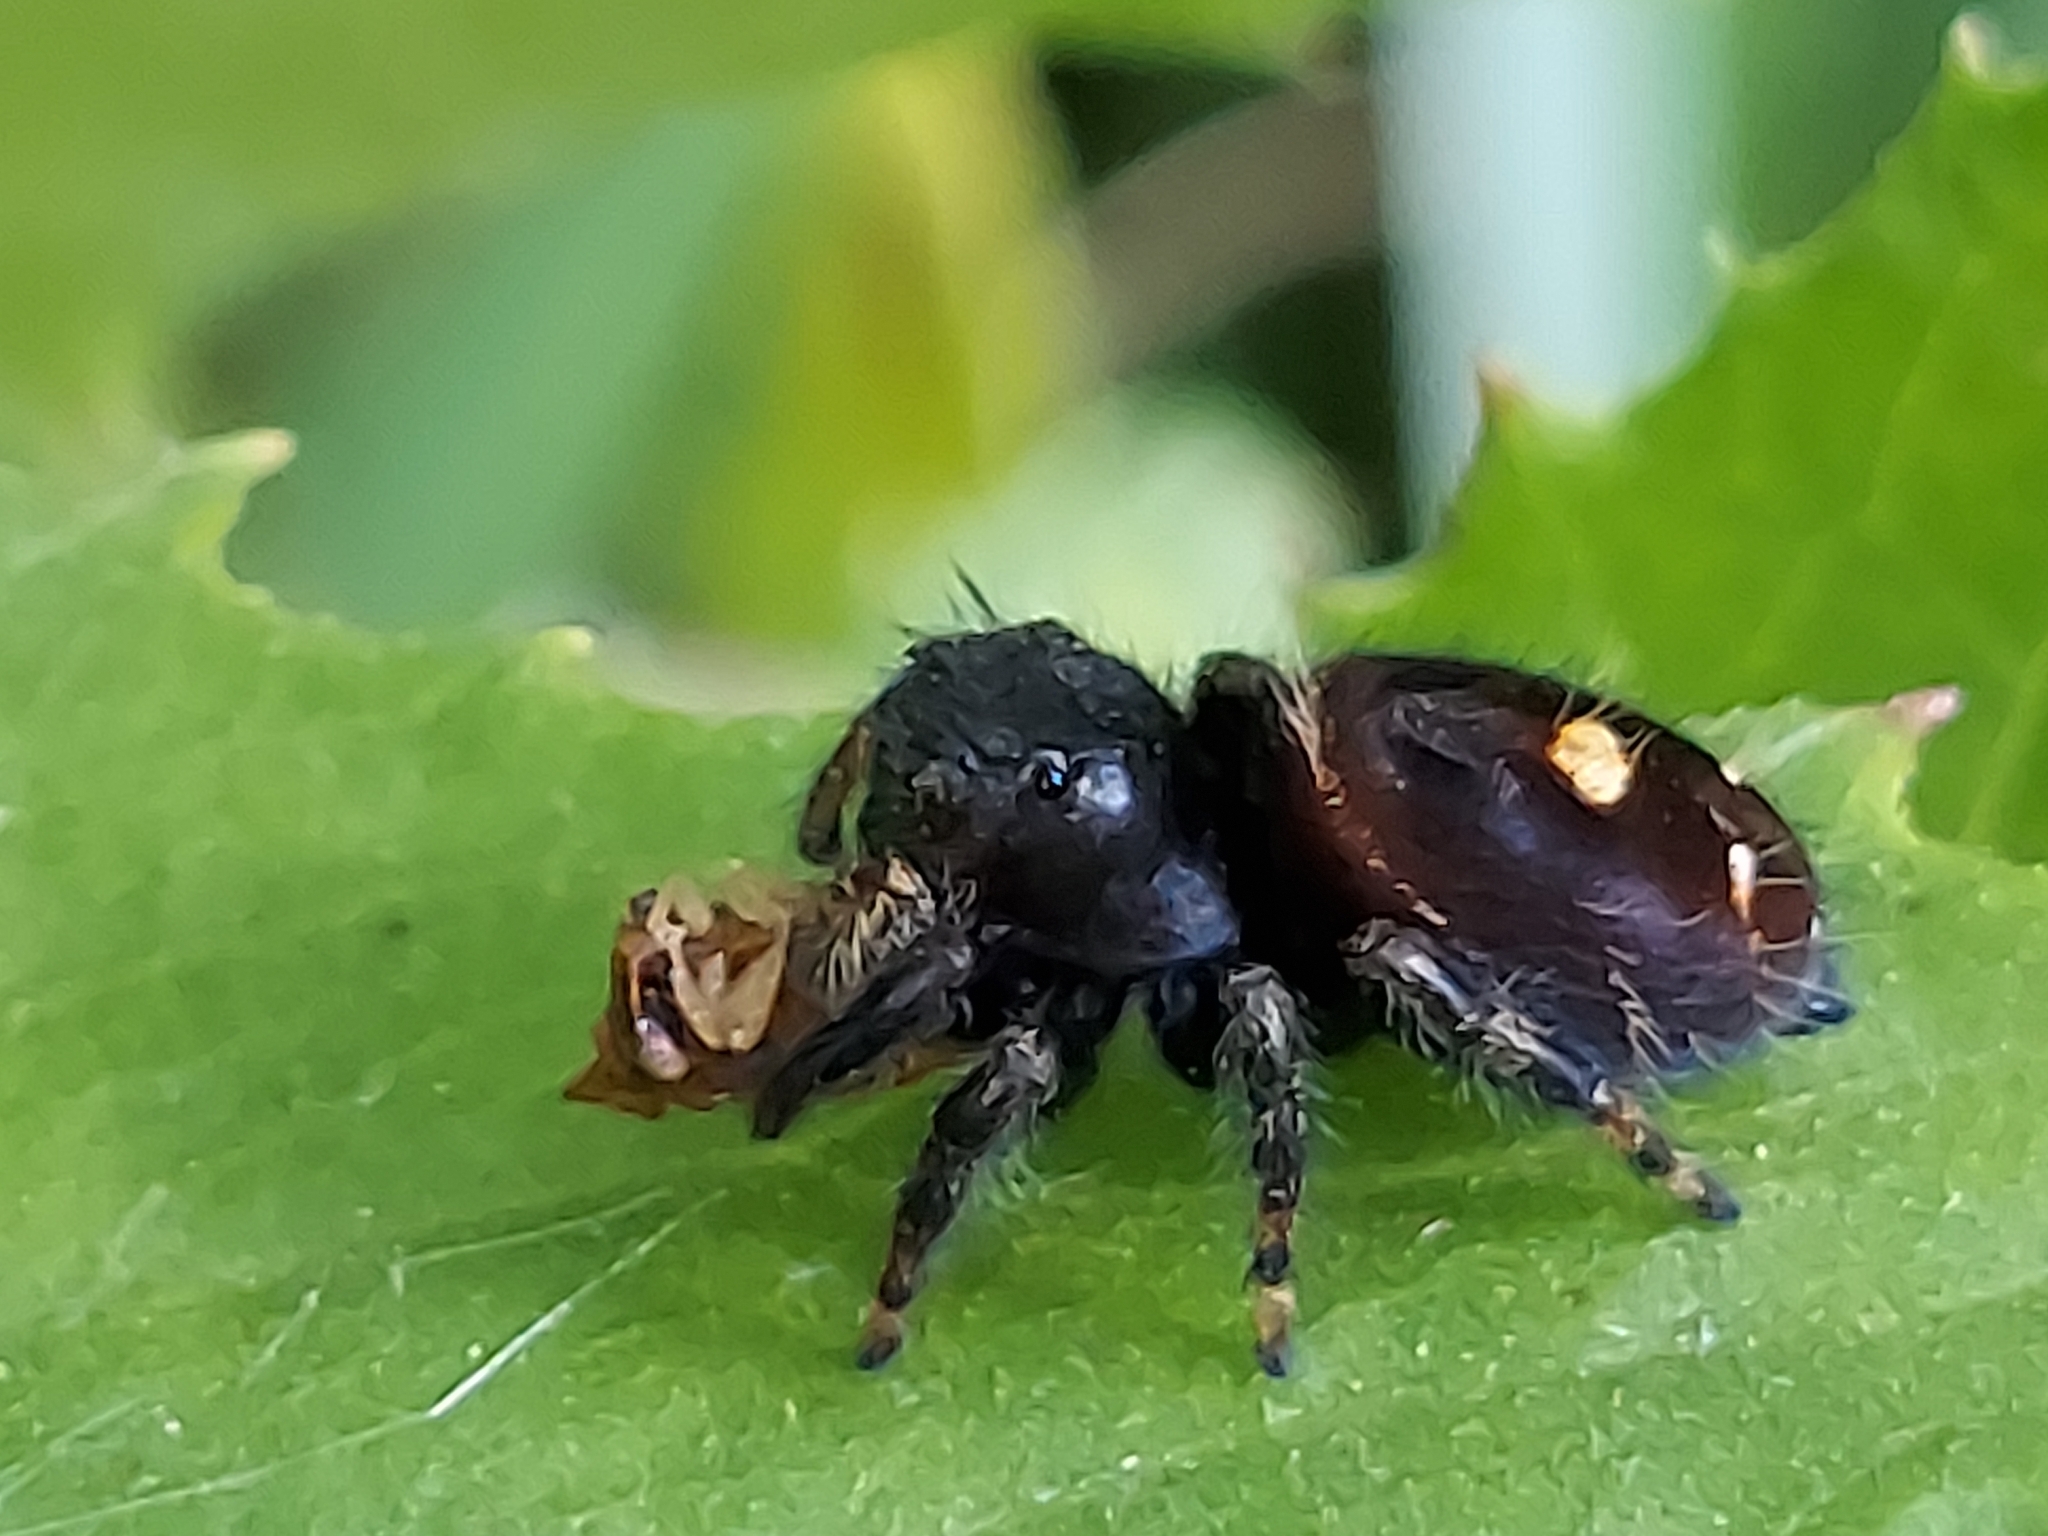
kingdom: Animalia
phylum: Arthropoda
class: Arachnida
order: Araneae
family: Salticidae
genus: Phidippus
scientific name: Phidippus audax
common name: Bold jumper
